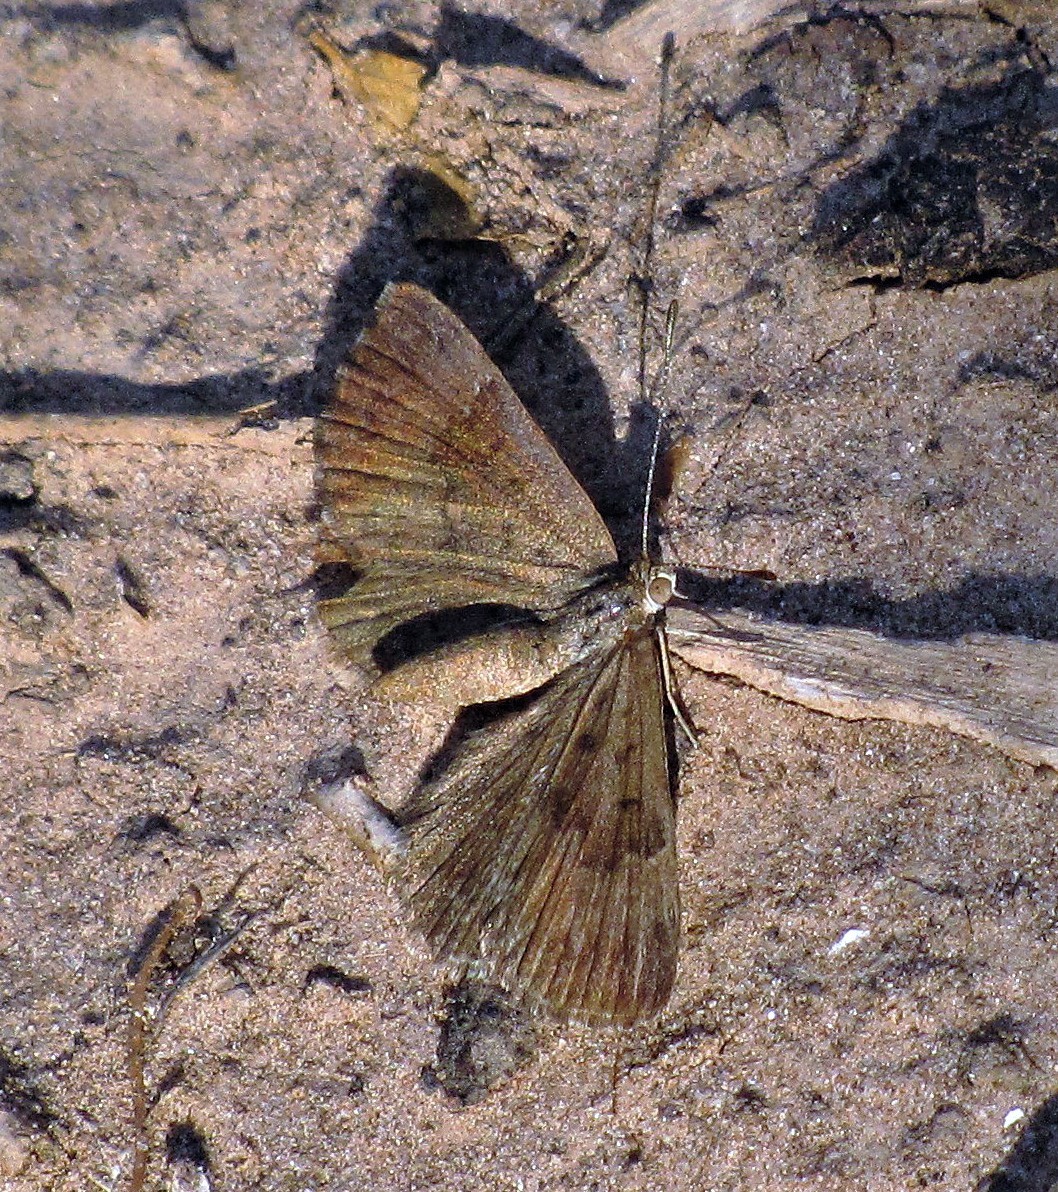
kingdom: Animalia
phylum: Arthropoda
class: Insecta
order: Lepidoptera
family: Riodinidae
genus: Zabuella
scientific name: Zabuella tenellus
